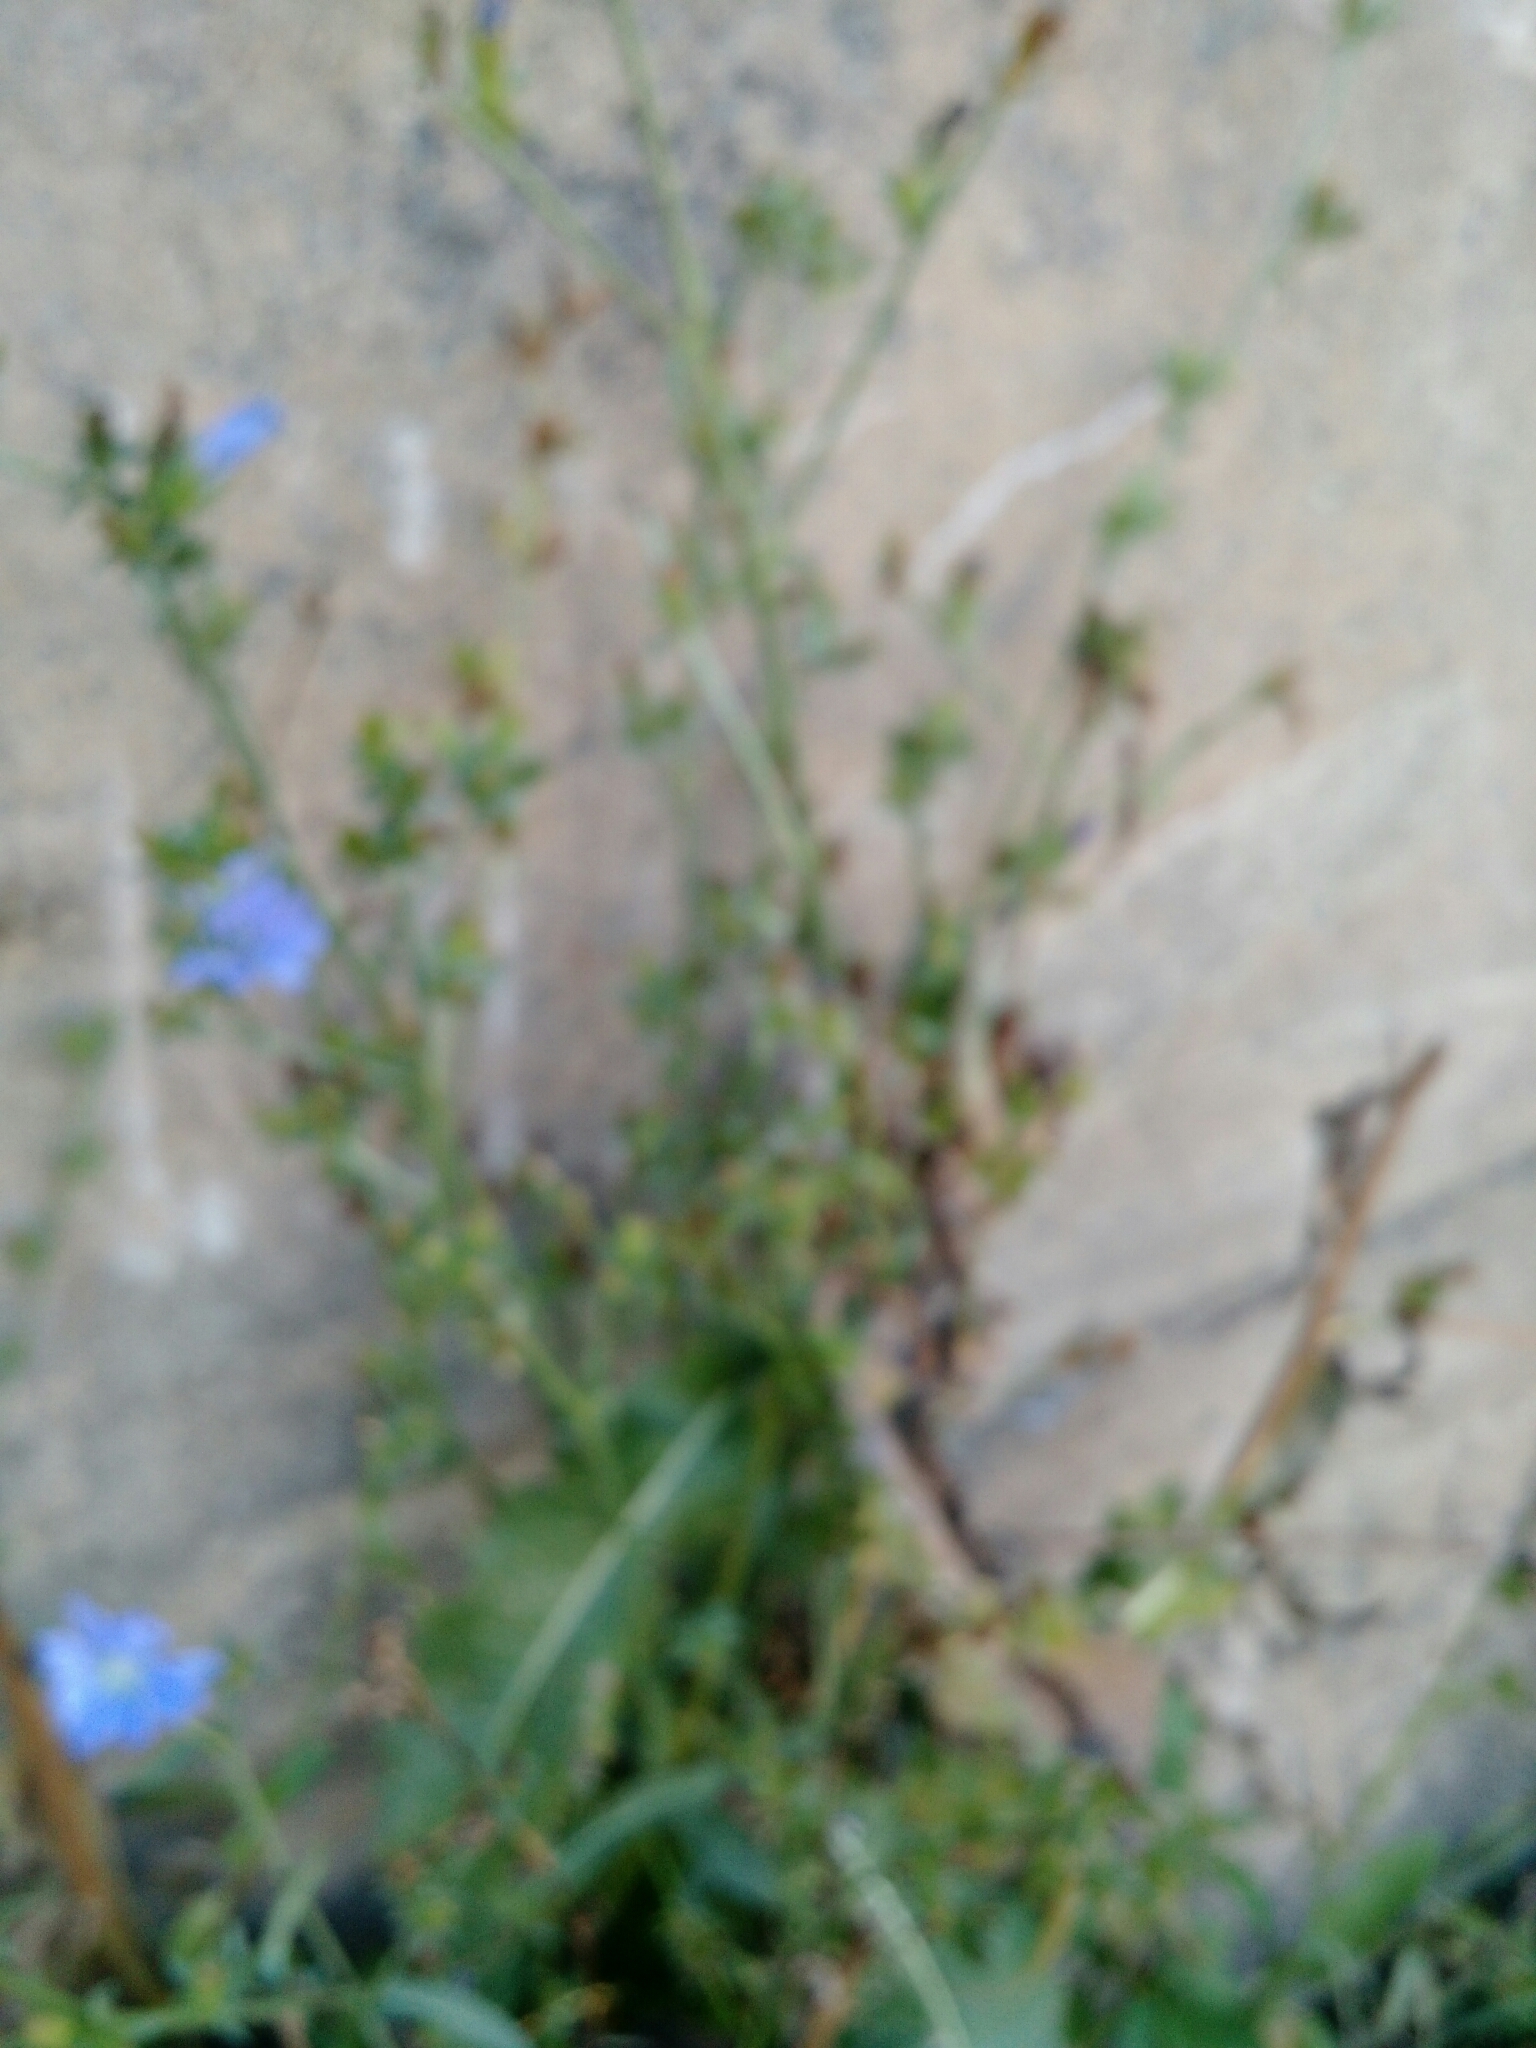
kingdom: Plantae
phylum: Tracheophyta
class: Magnoliopsida
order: Asterales
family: Asteraceae
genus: Cichorium
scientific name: Cichorium intybus
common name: Chicory
